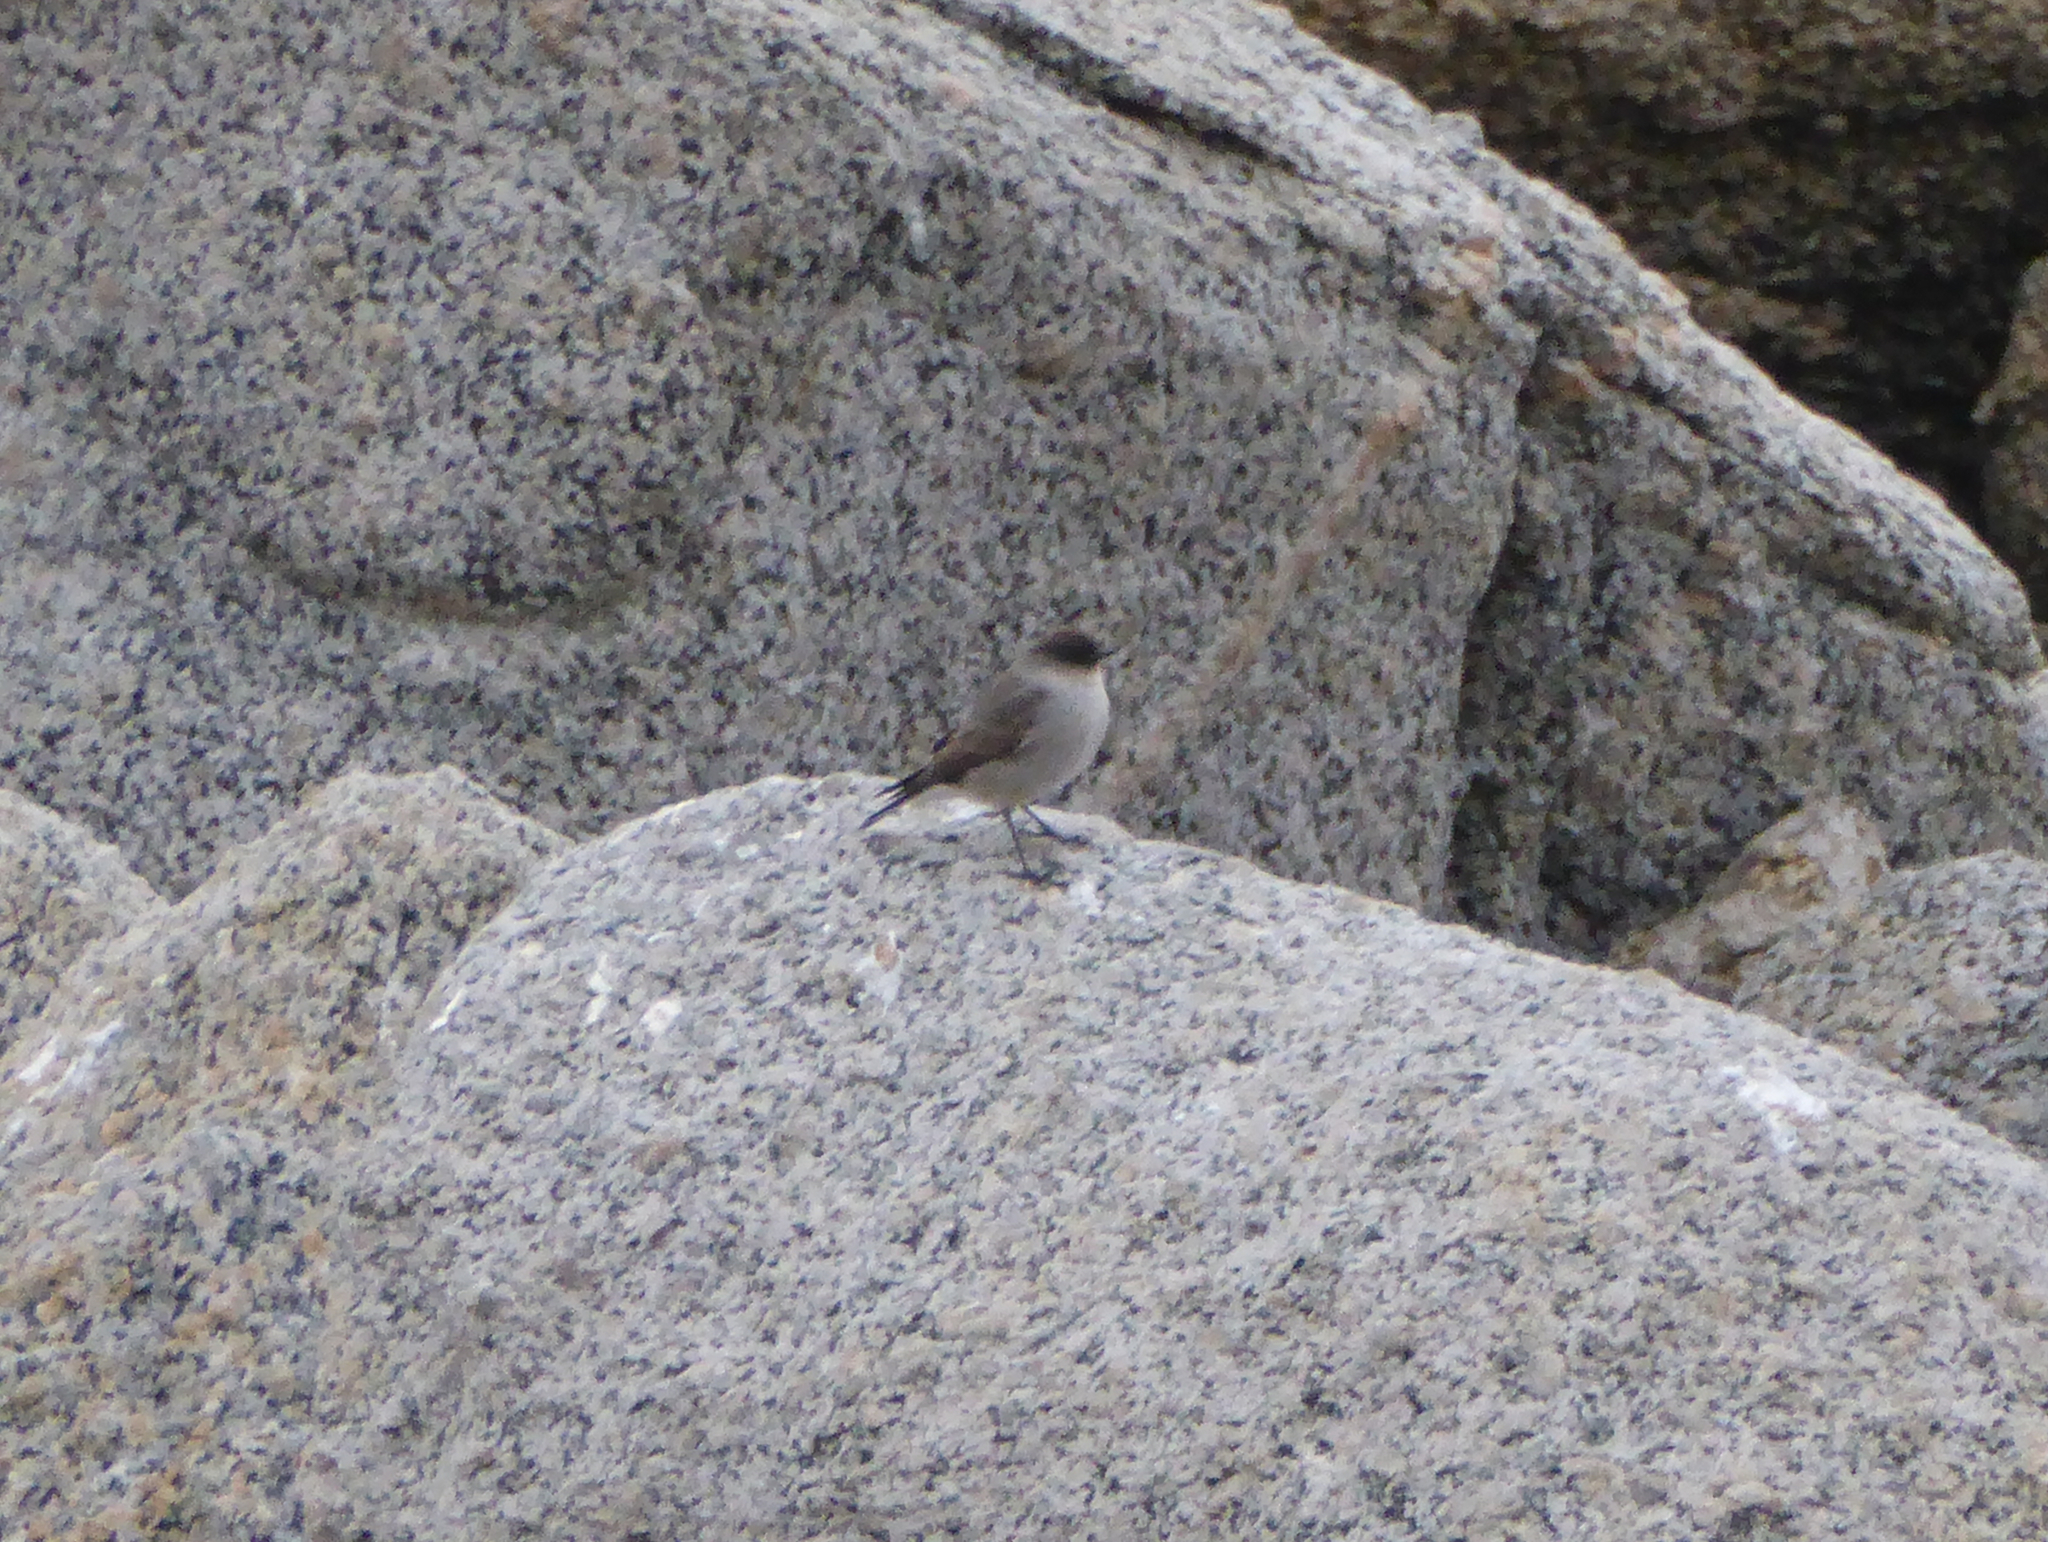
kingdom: Animalia
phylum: Chordata
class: Aves
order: Passeriformes
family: Tyrannidae
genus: Muscisaxicola
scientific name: Muscisaxicola maclovianus
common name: Dark-faced ground tyrant
